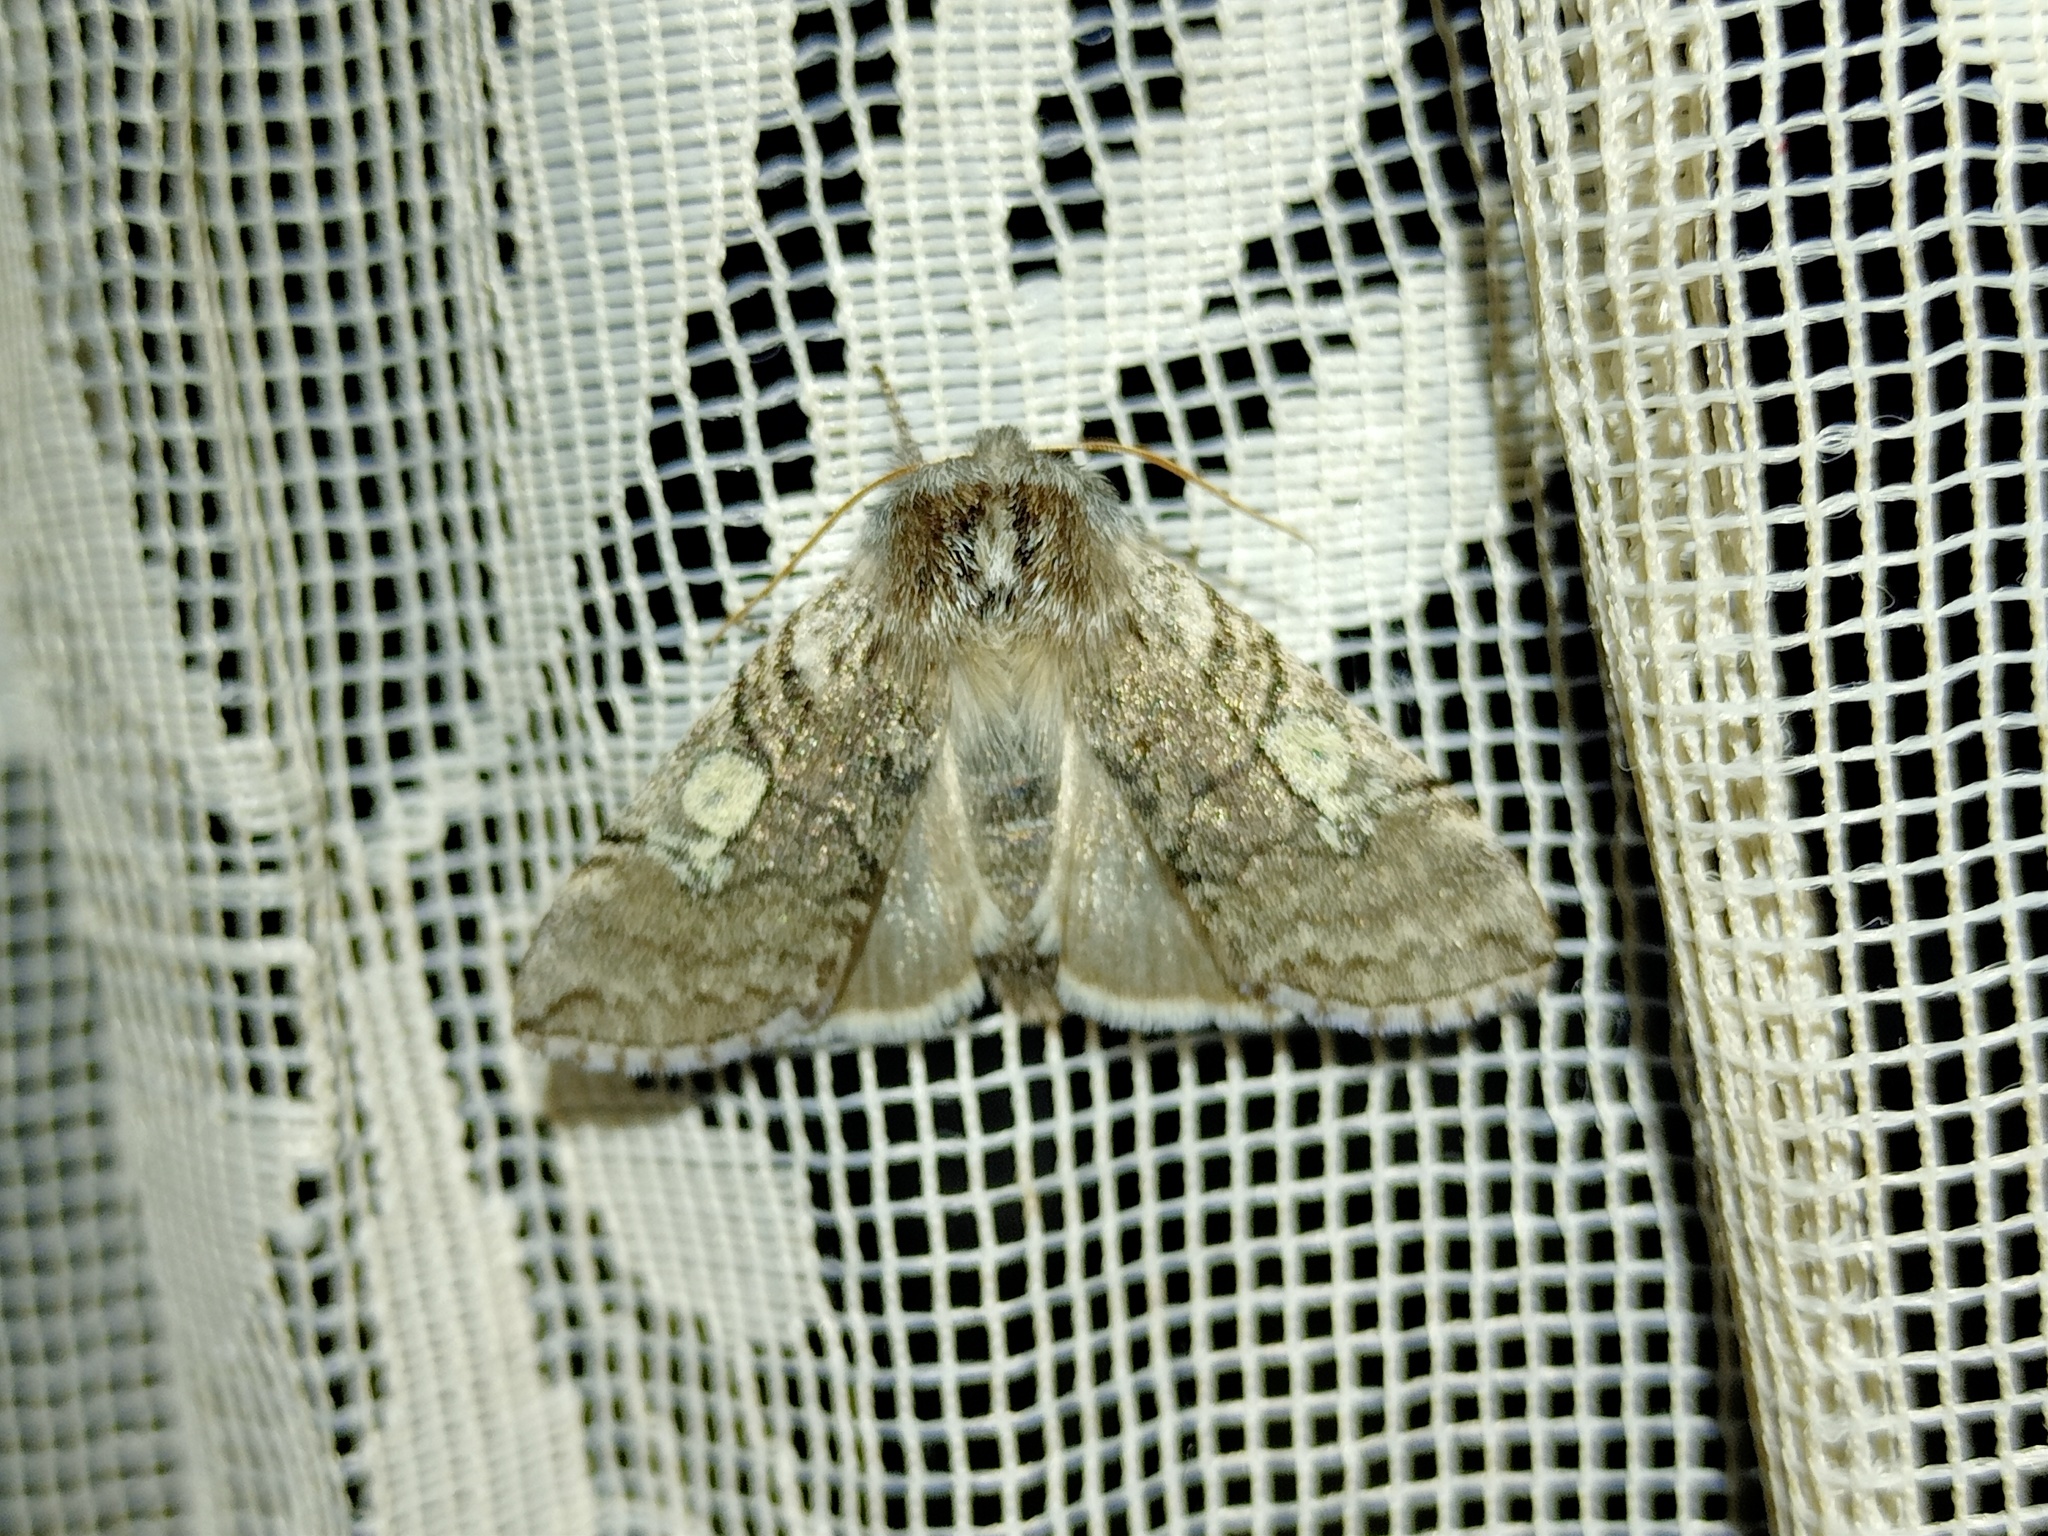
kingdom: Animalia
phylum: Arthropoda
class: Insecta
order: Lepidoptera
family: Drepanidae
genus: Achlya
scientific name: Achlya flavicornis
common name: Yellow horned
